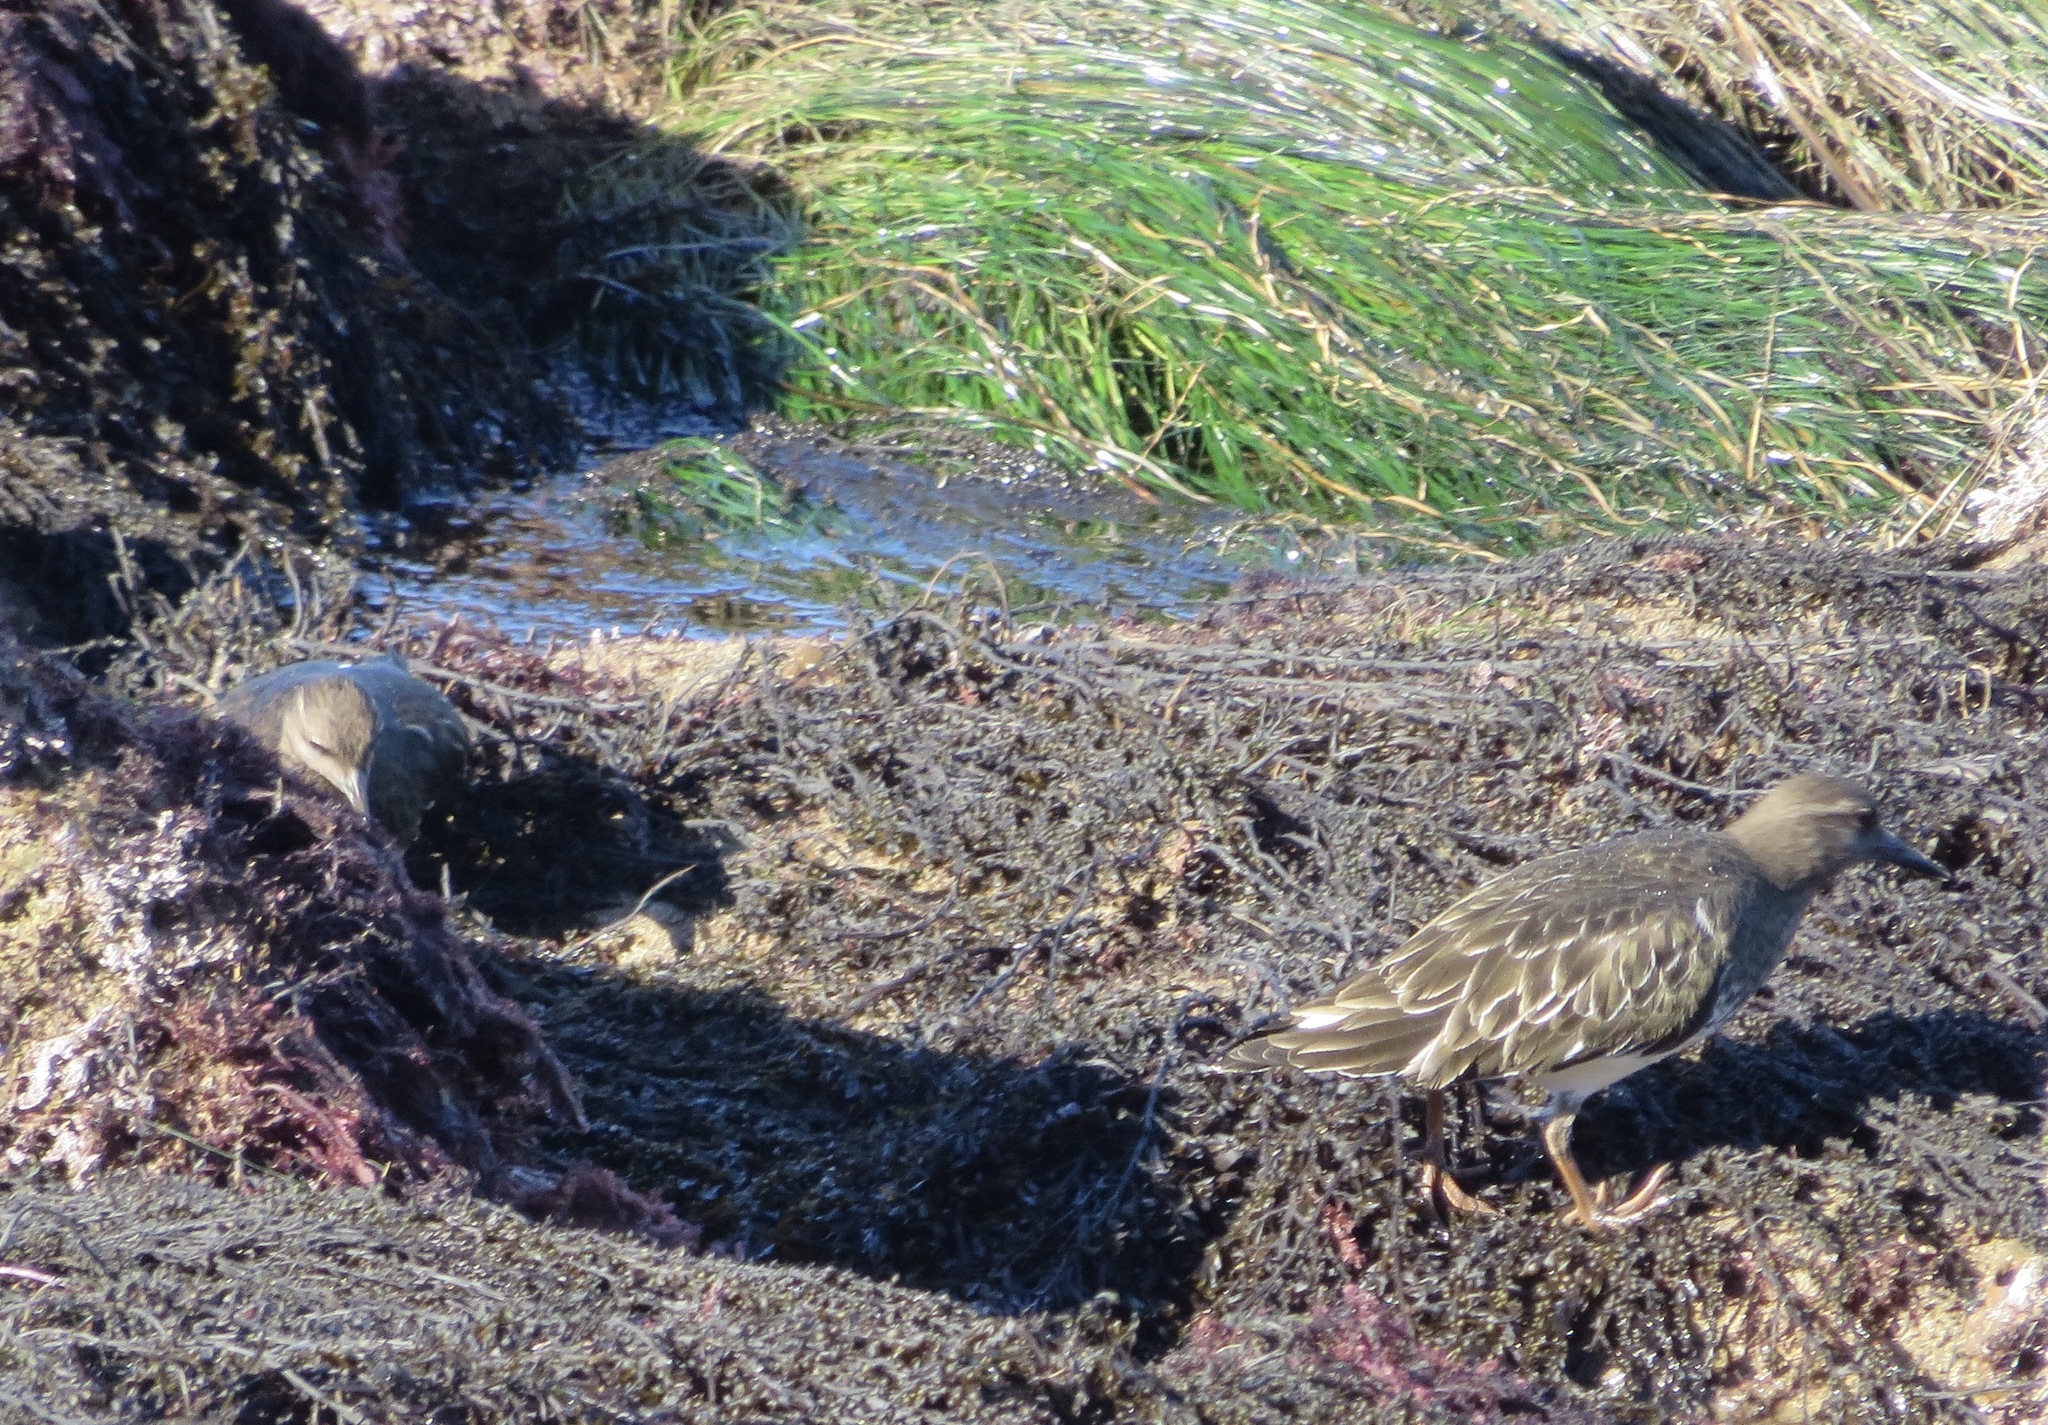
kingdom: Animalia
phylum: Chordata
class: Aves
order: Charadriiformes
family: Scolopacidae
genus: Arenaria
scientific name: Arenaria melanocephala
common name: Black turnstone
